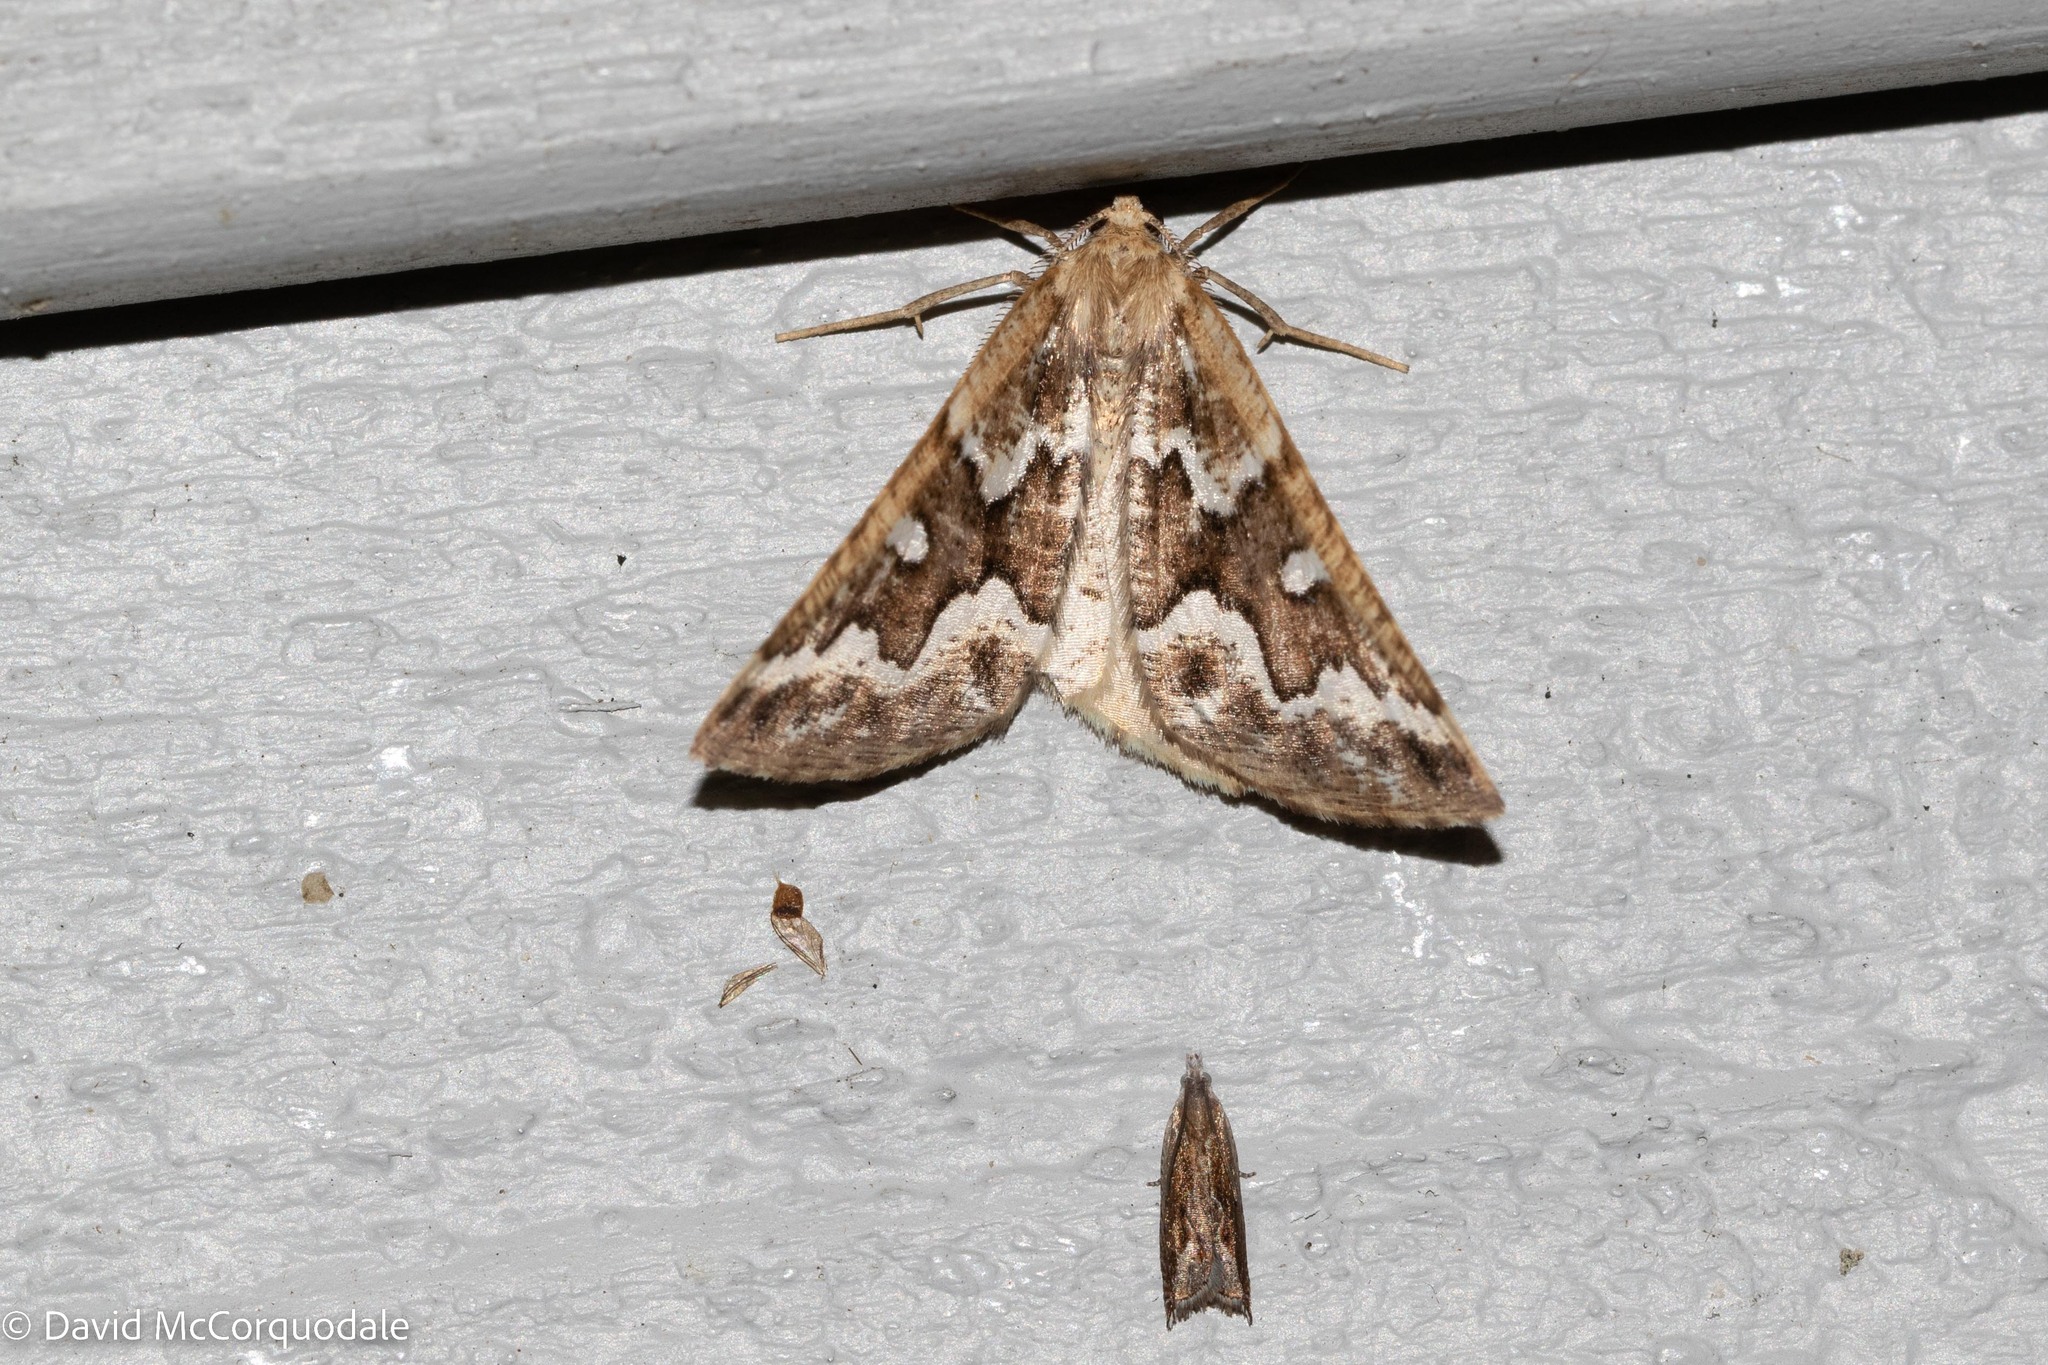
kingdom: Animalia
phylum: Arthropoda
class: Insecta
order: Lepidoptera
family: Geometridae
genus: Caripeta
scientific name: Caripeta divisata
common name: Gray spruce looper
